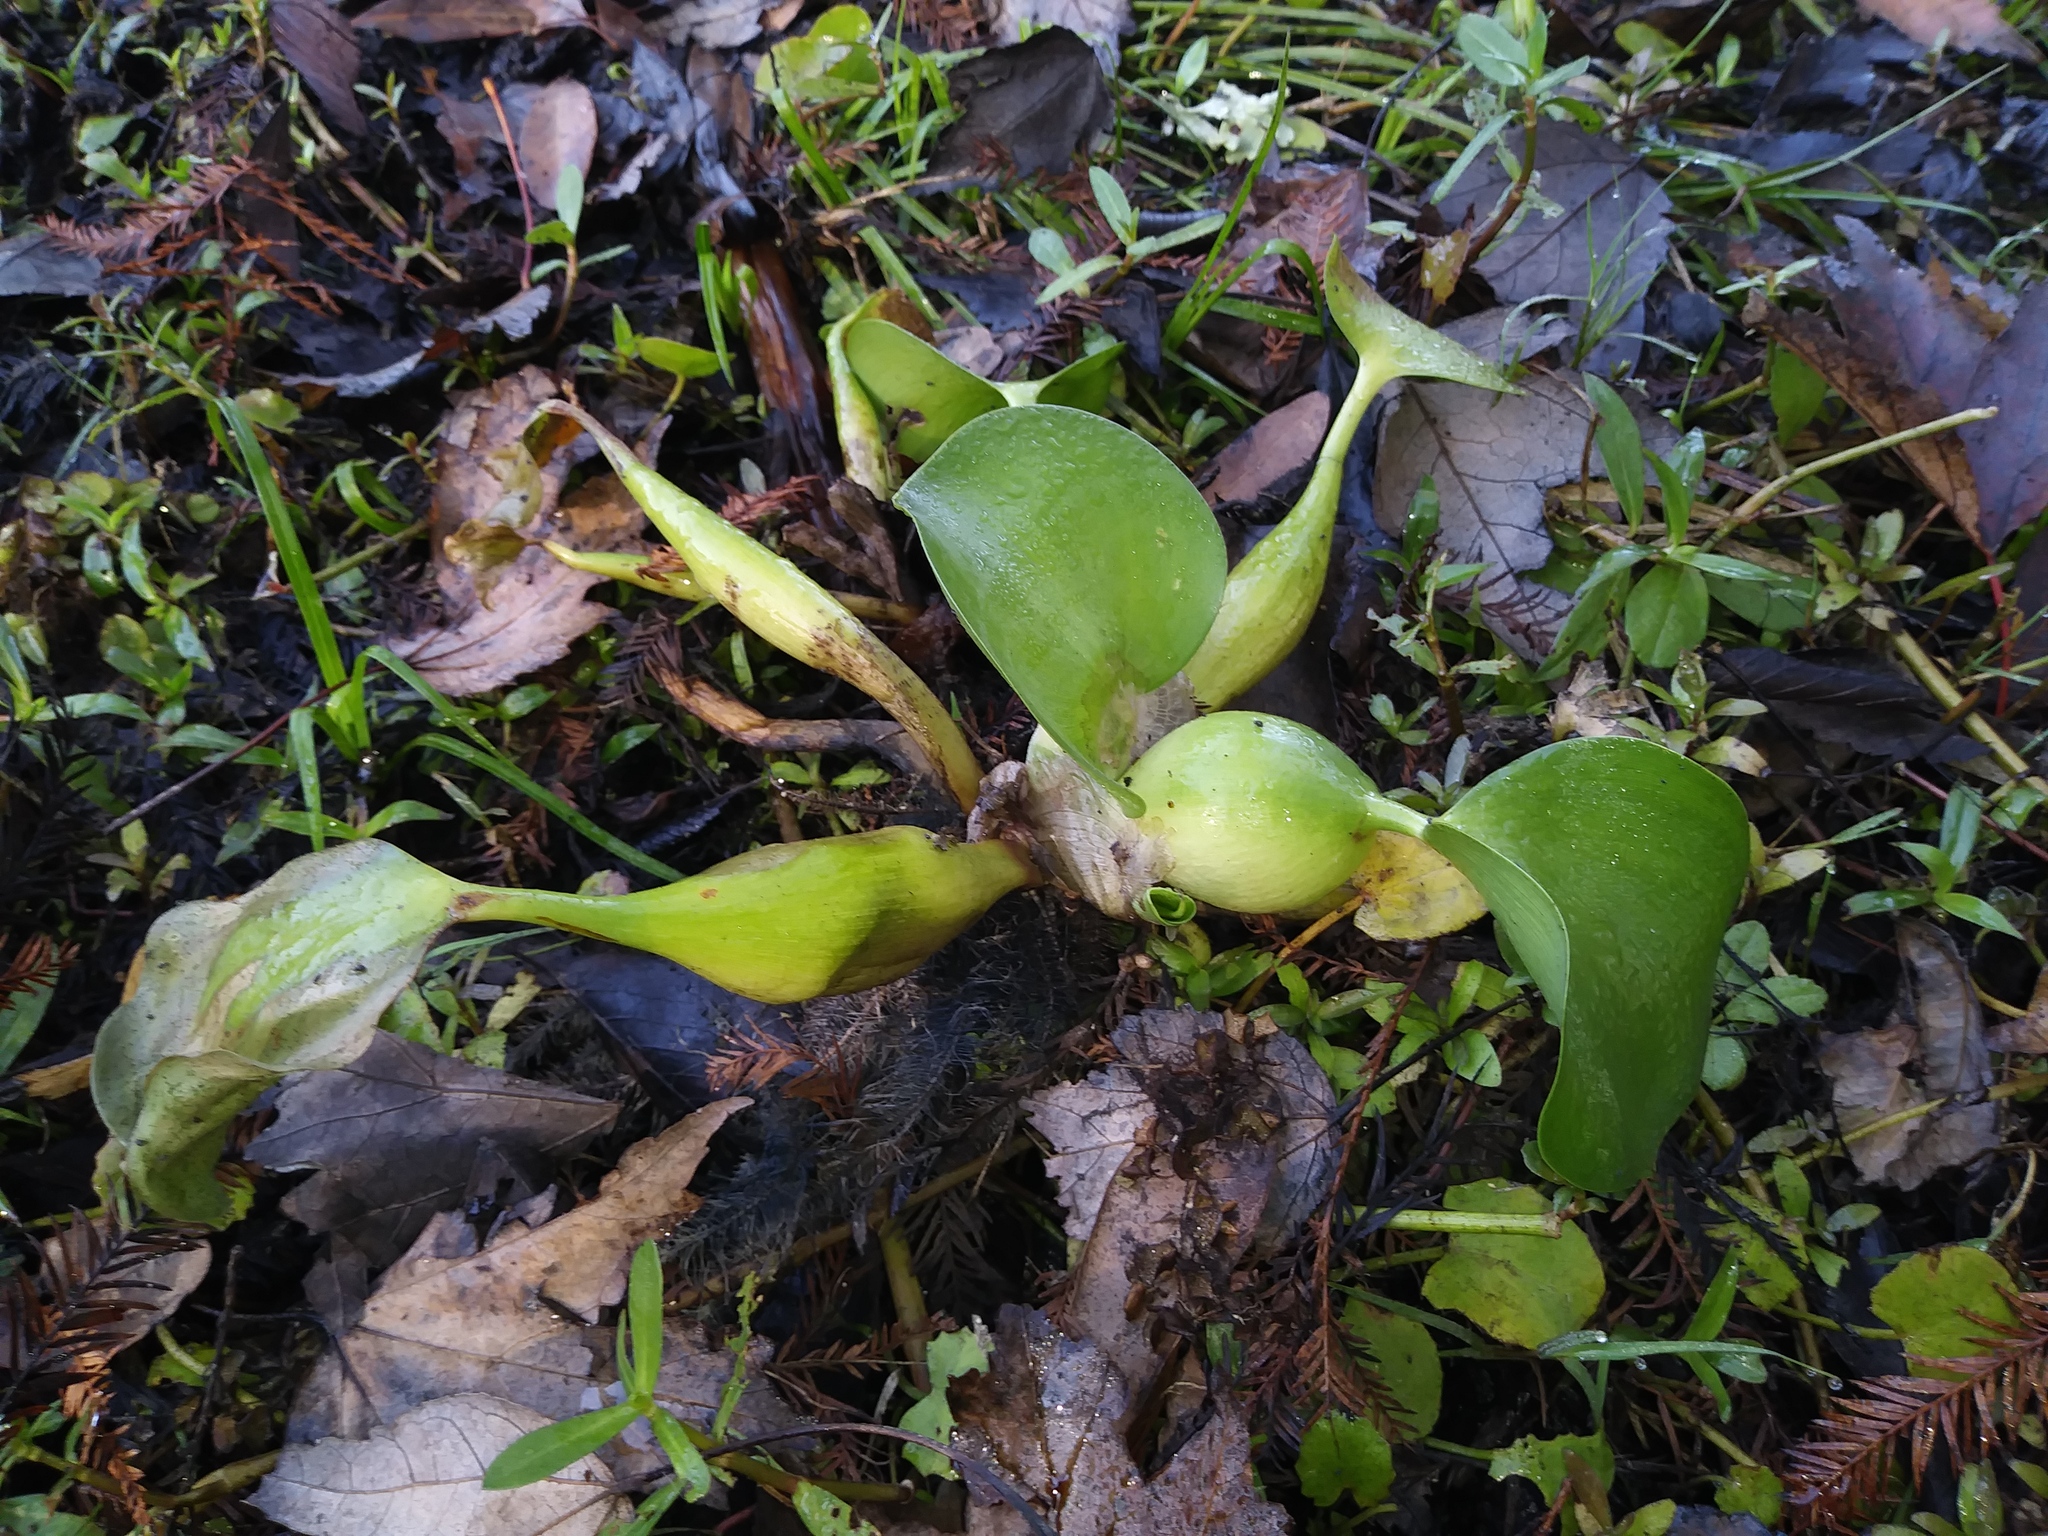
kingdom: Plantae
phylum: Tracheophyta
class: Liliopsida
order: Commelinales
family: Pontederiaceae
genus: Pontederia
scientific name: Pontederia crassipes
